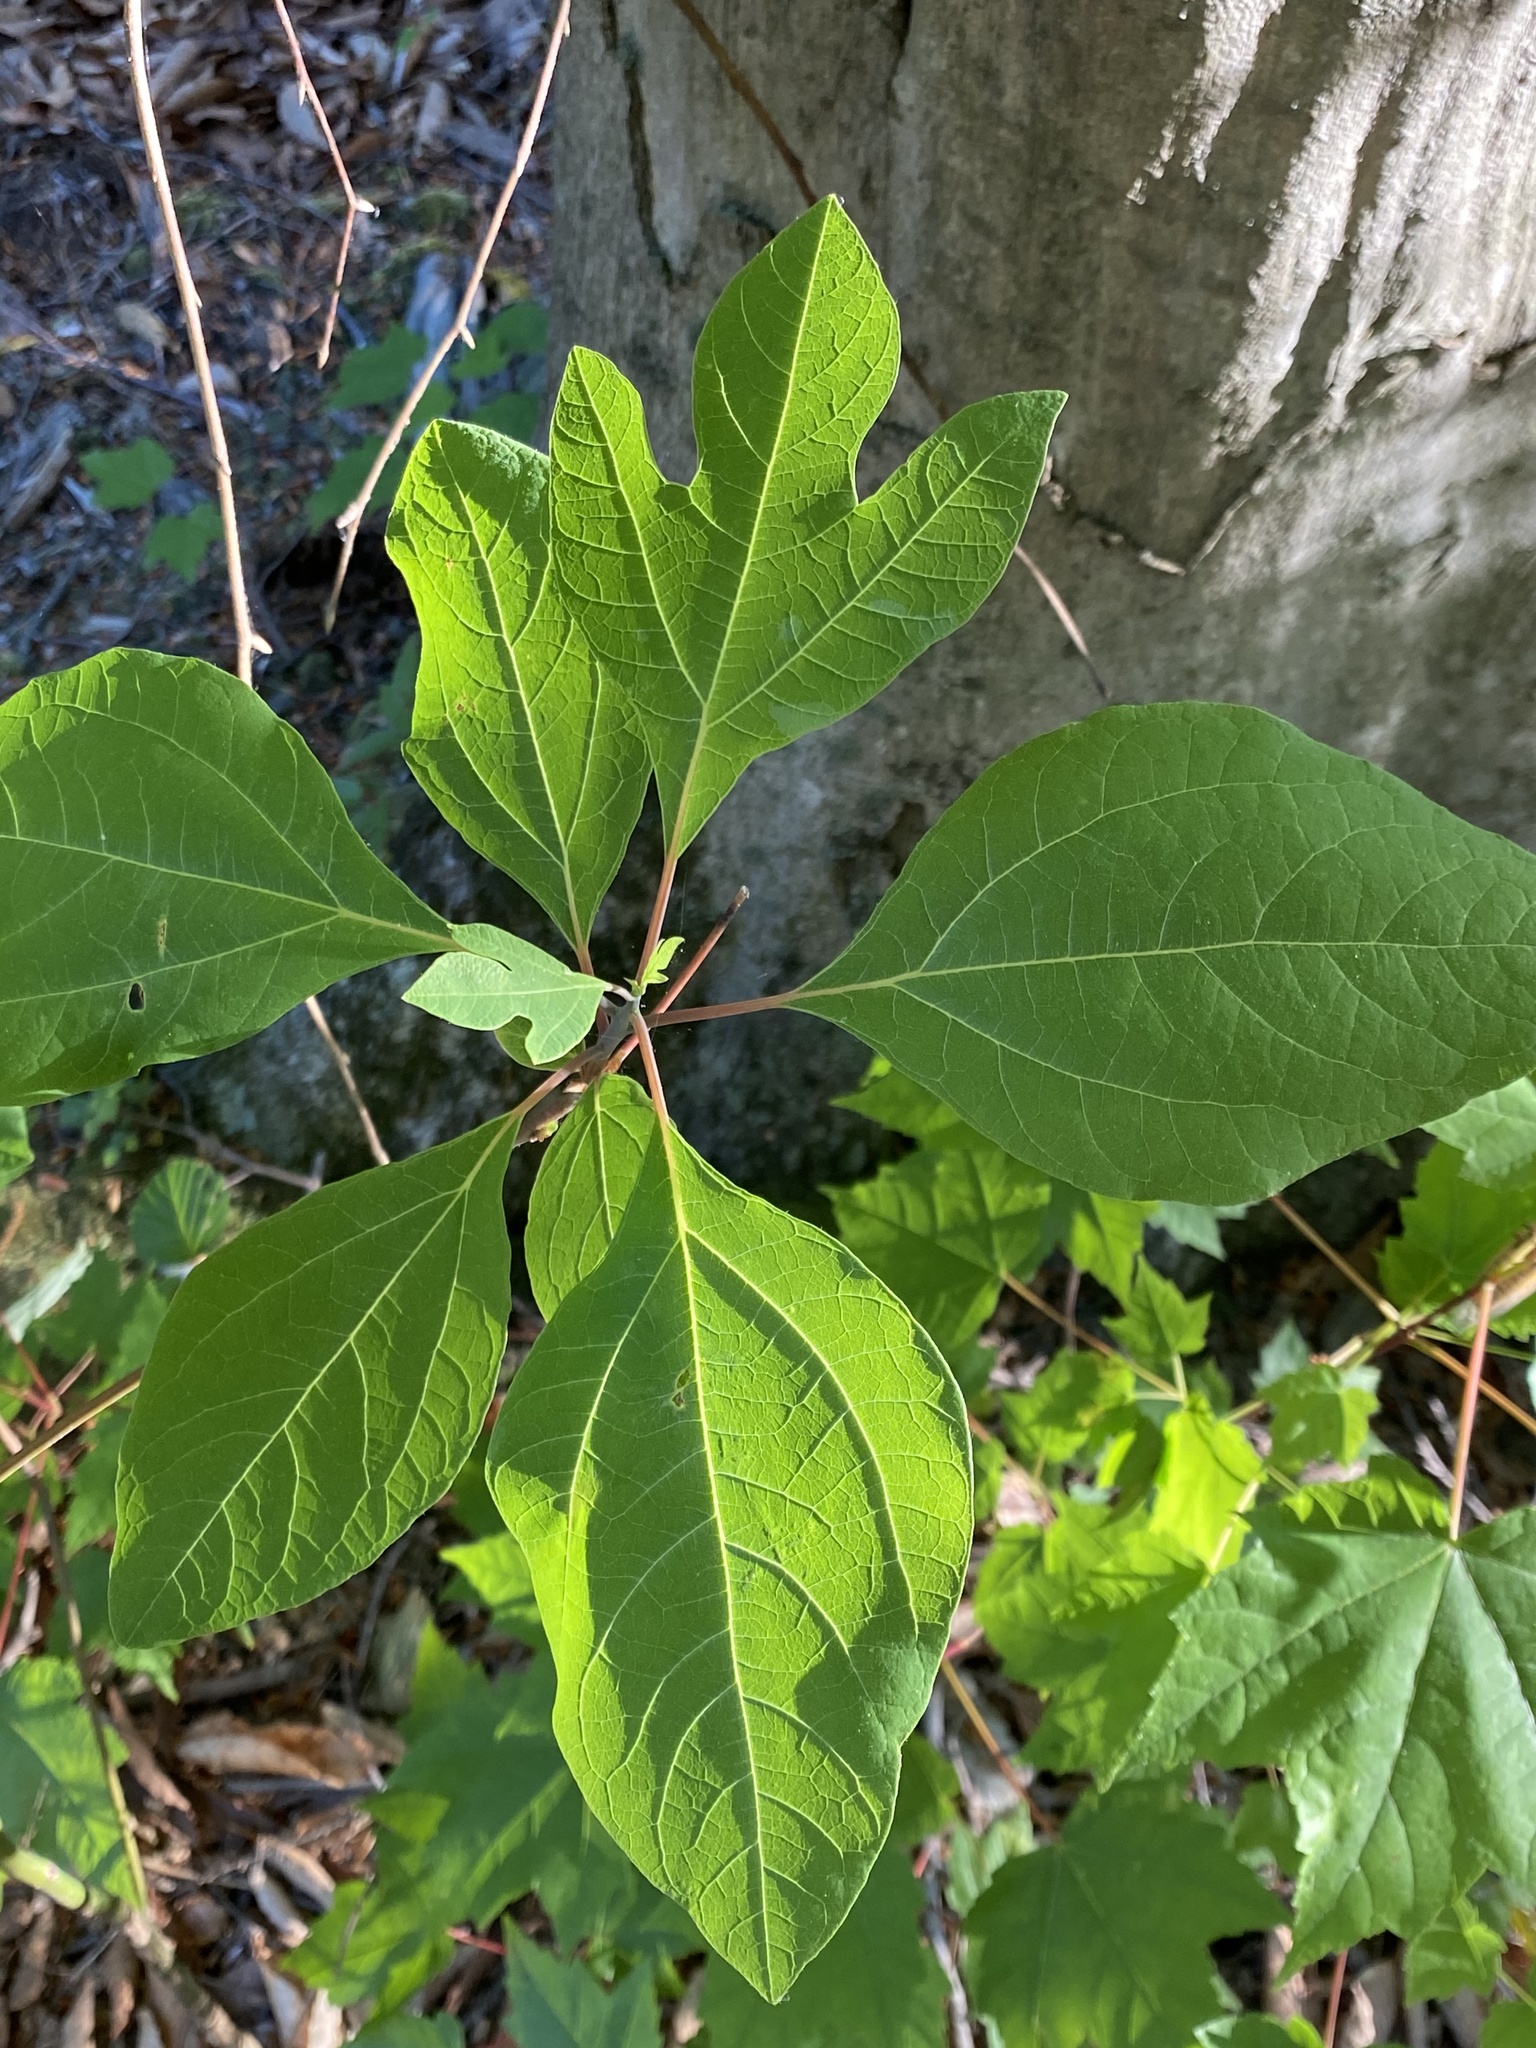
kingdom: Plantae
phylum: Tracheophyta
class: Magnoliopsida
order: Laurales
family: Lauraceae
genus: Sassafras
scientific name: Sassafras albidum
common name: Sassafras
